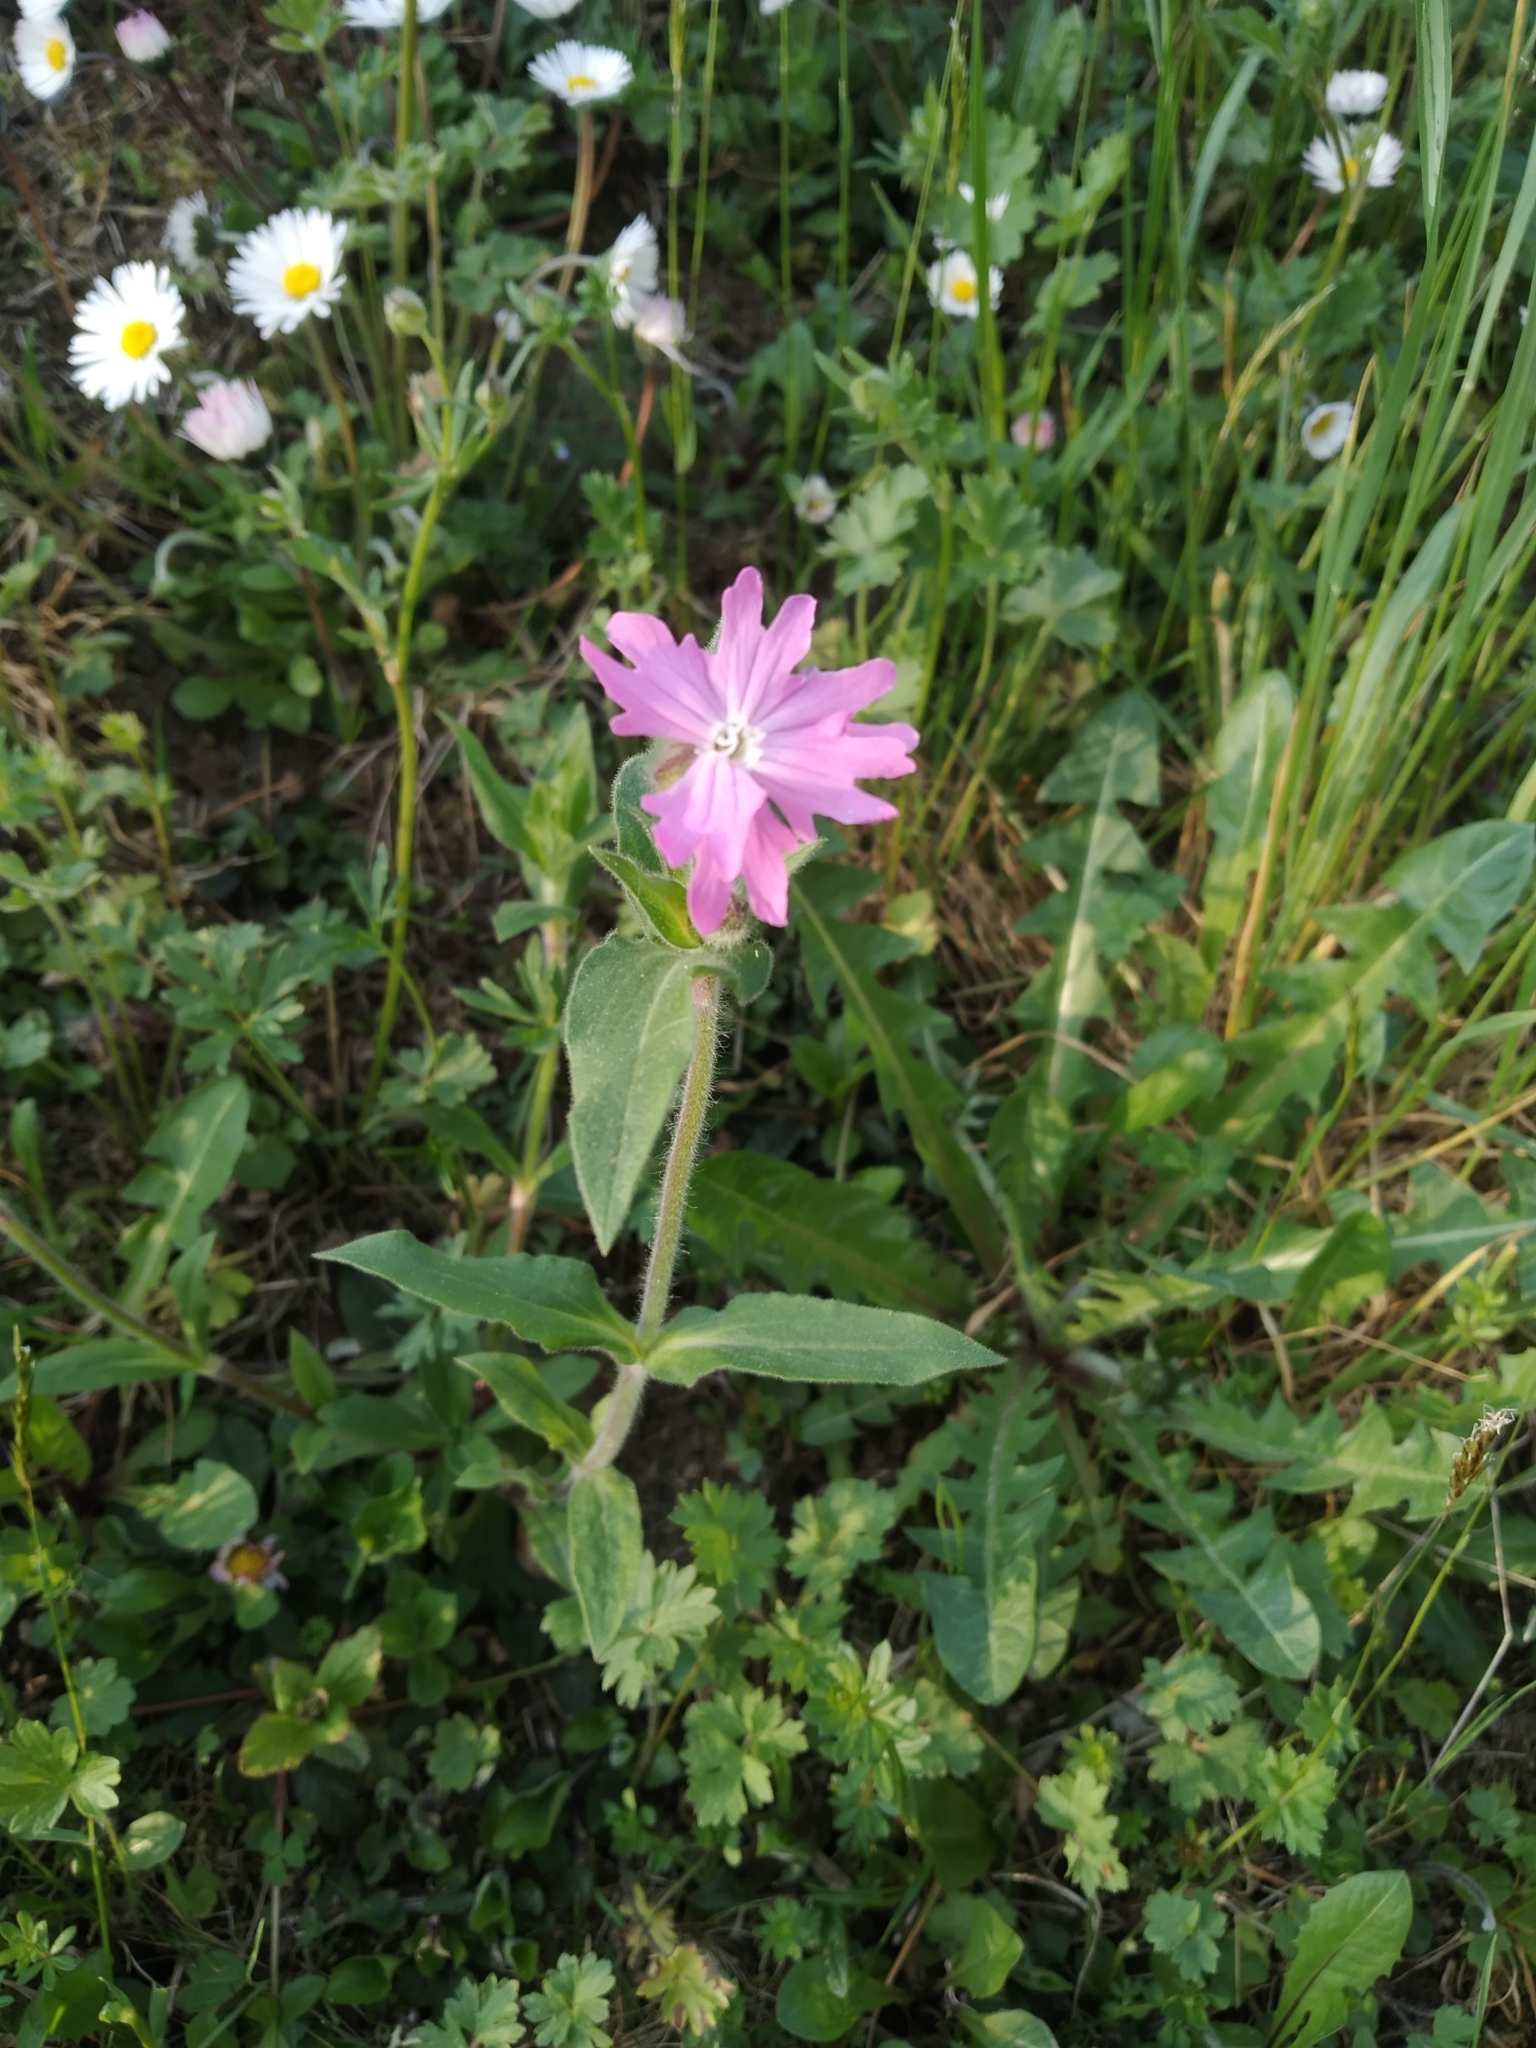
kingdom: Plantae
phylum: Tracheophyta
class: Magnoliopsida
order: Caryophyllales
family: Caryophyllaceae
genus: Silene
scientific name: Silene dioica
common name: Red campion
